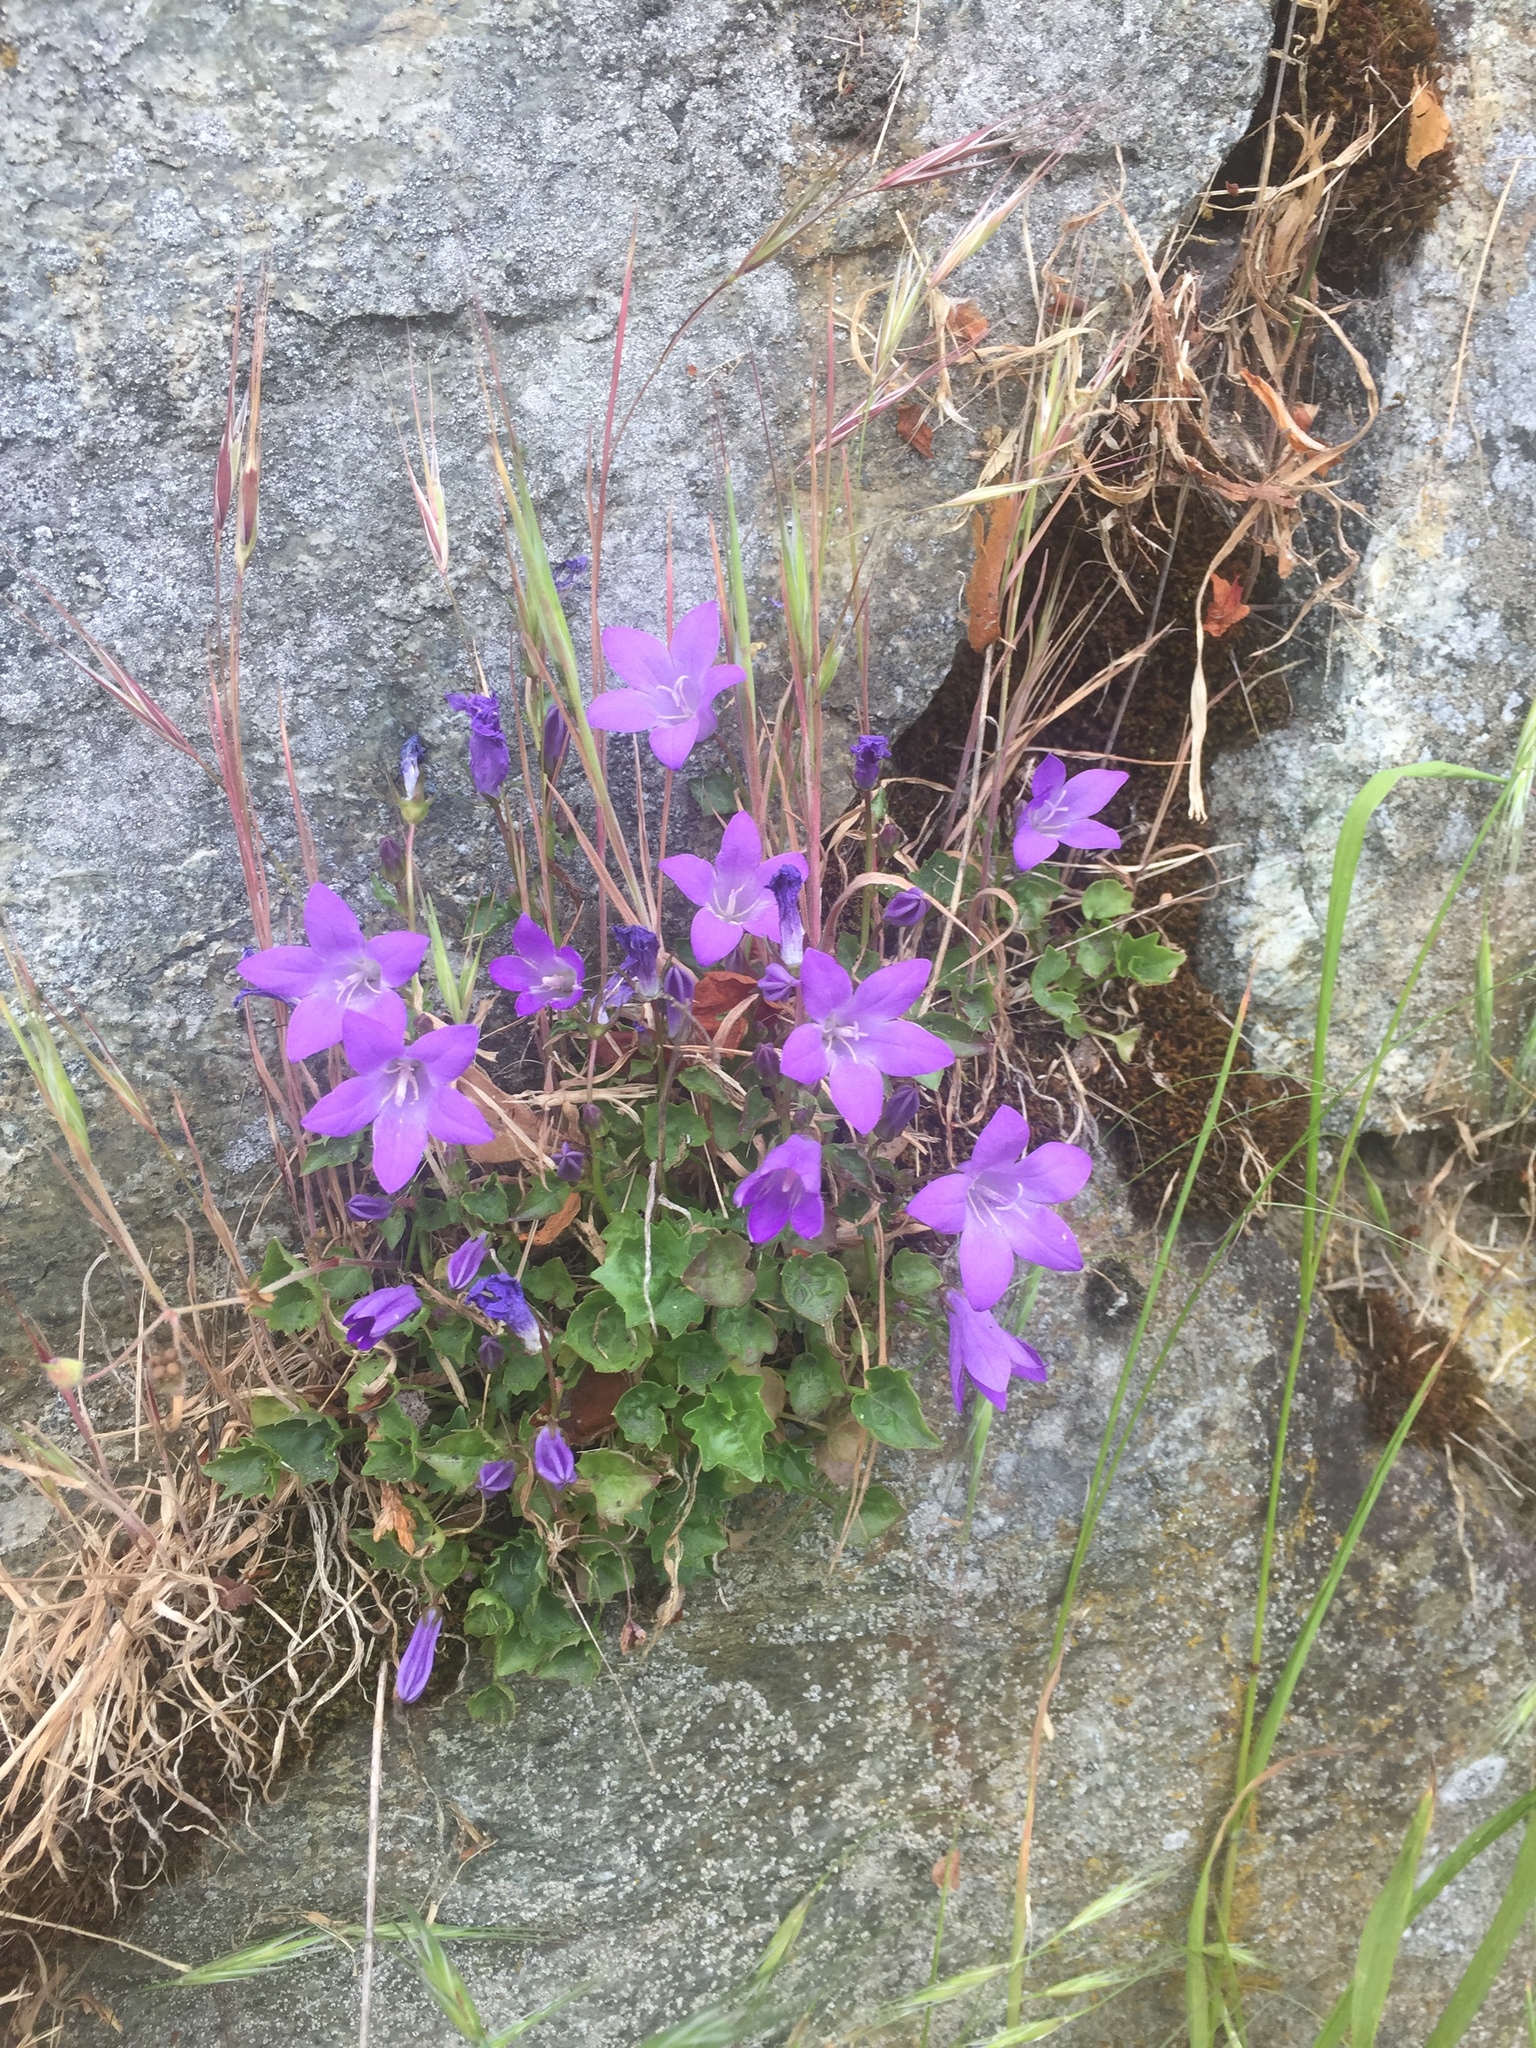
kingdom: Plantae
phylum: Tracheophyta
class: Magnoliopsida
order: Asterales
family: Campanulaceae
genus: Campanula
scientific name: Campanula poscharskyana
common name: Trailing bellflower
